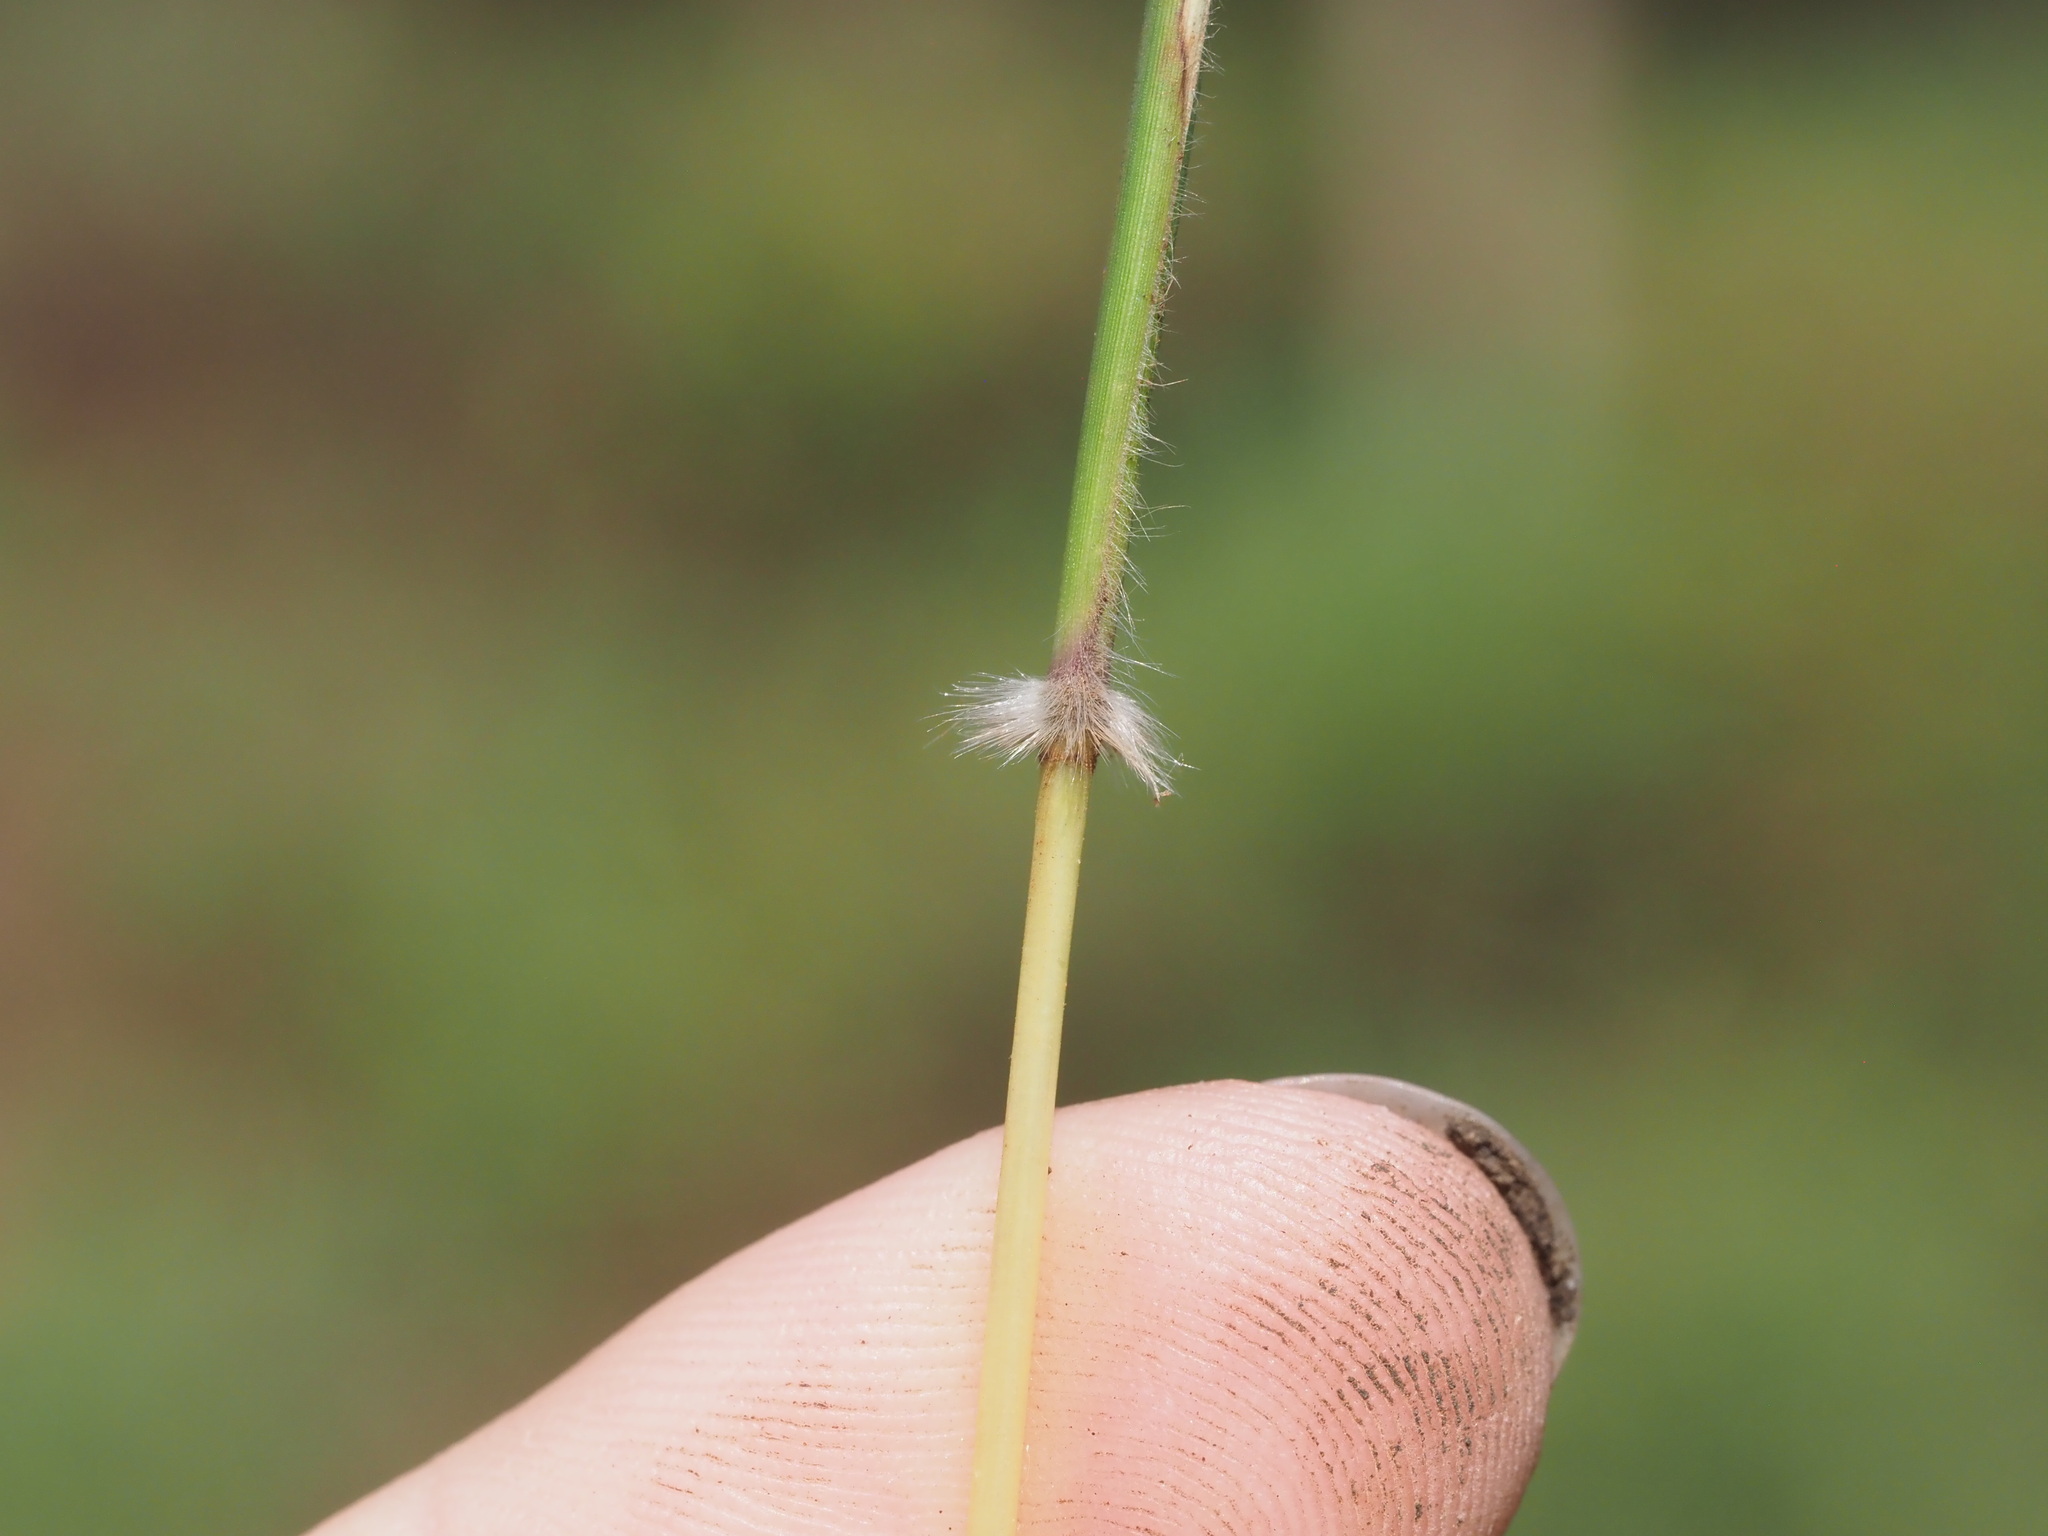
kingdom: Plantae
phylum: Tracheophyta
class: Liliopsida
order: Poales
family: Poaceae
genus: Dichanthium
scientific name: Dichanthium annulatum
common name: Kleberg's bluestem
